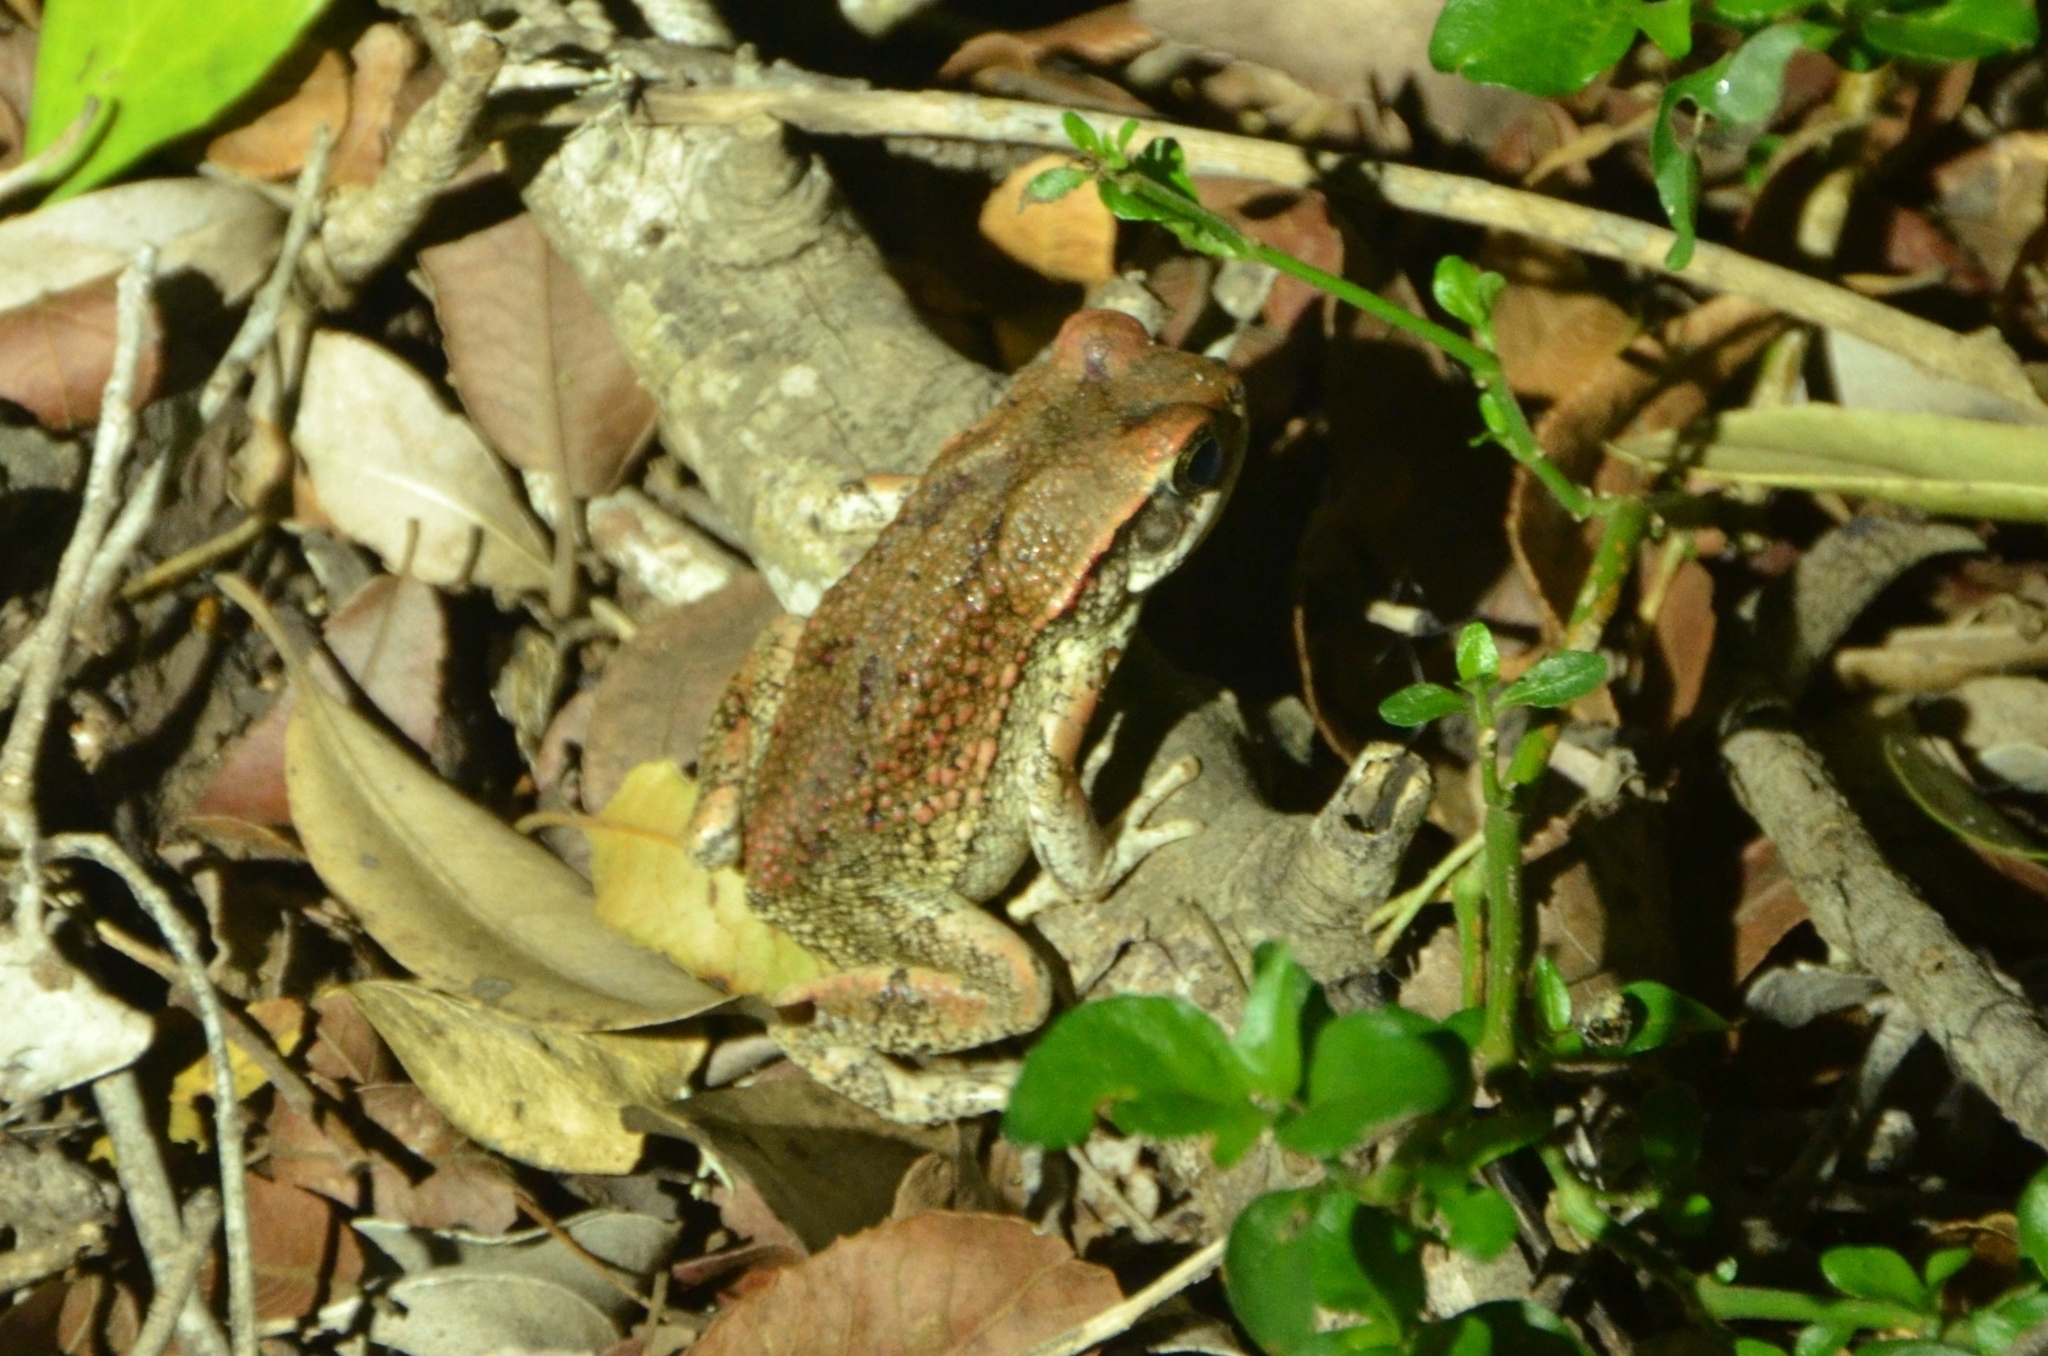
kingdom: Animalia
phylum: Chordata
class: Amphibia
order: Anura
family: Bufonidae
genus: Schismaderma
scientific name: Schismaderma carens
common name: African split-skin toad
